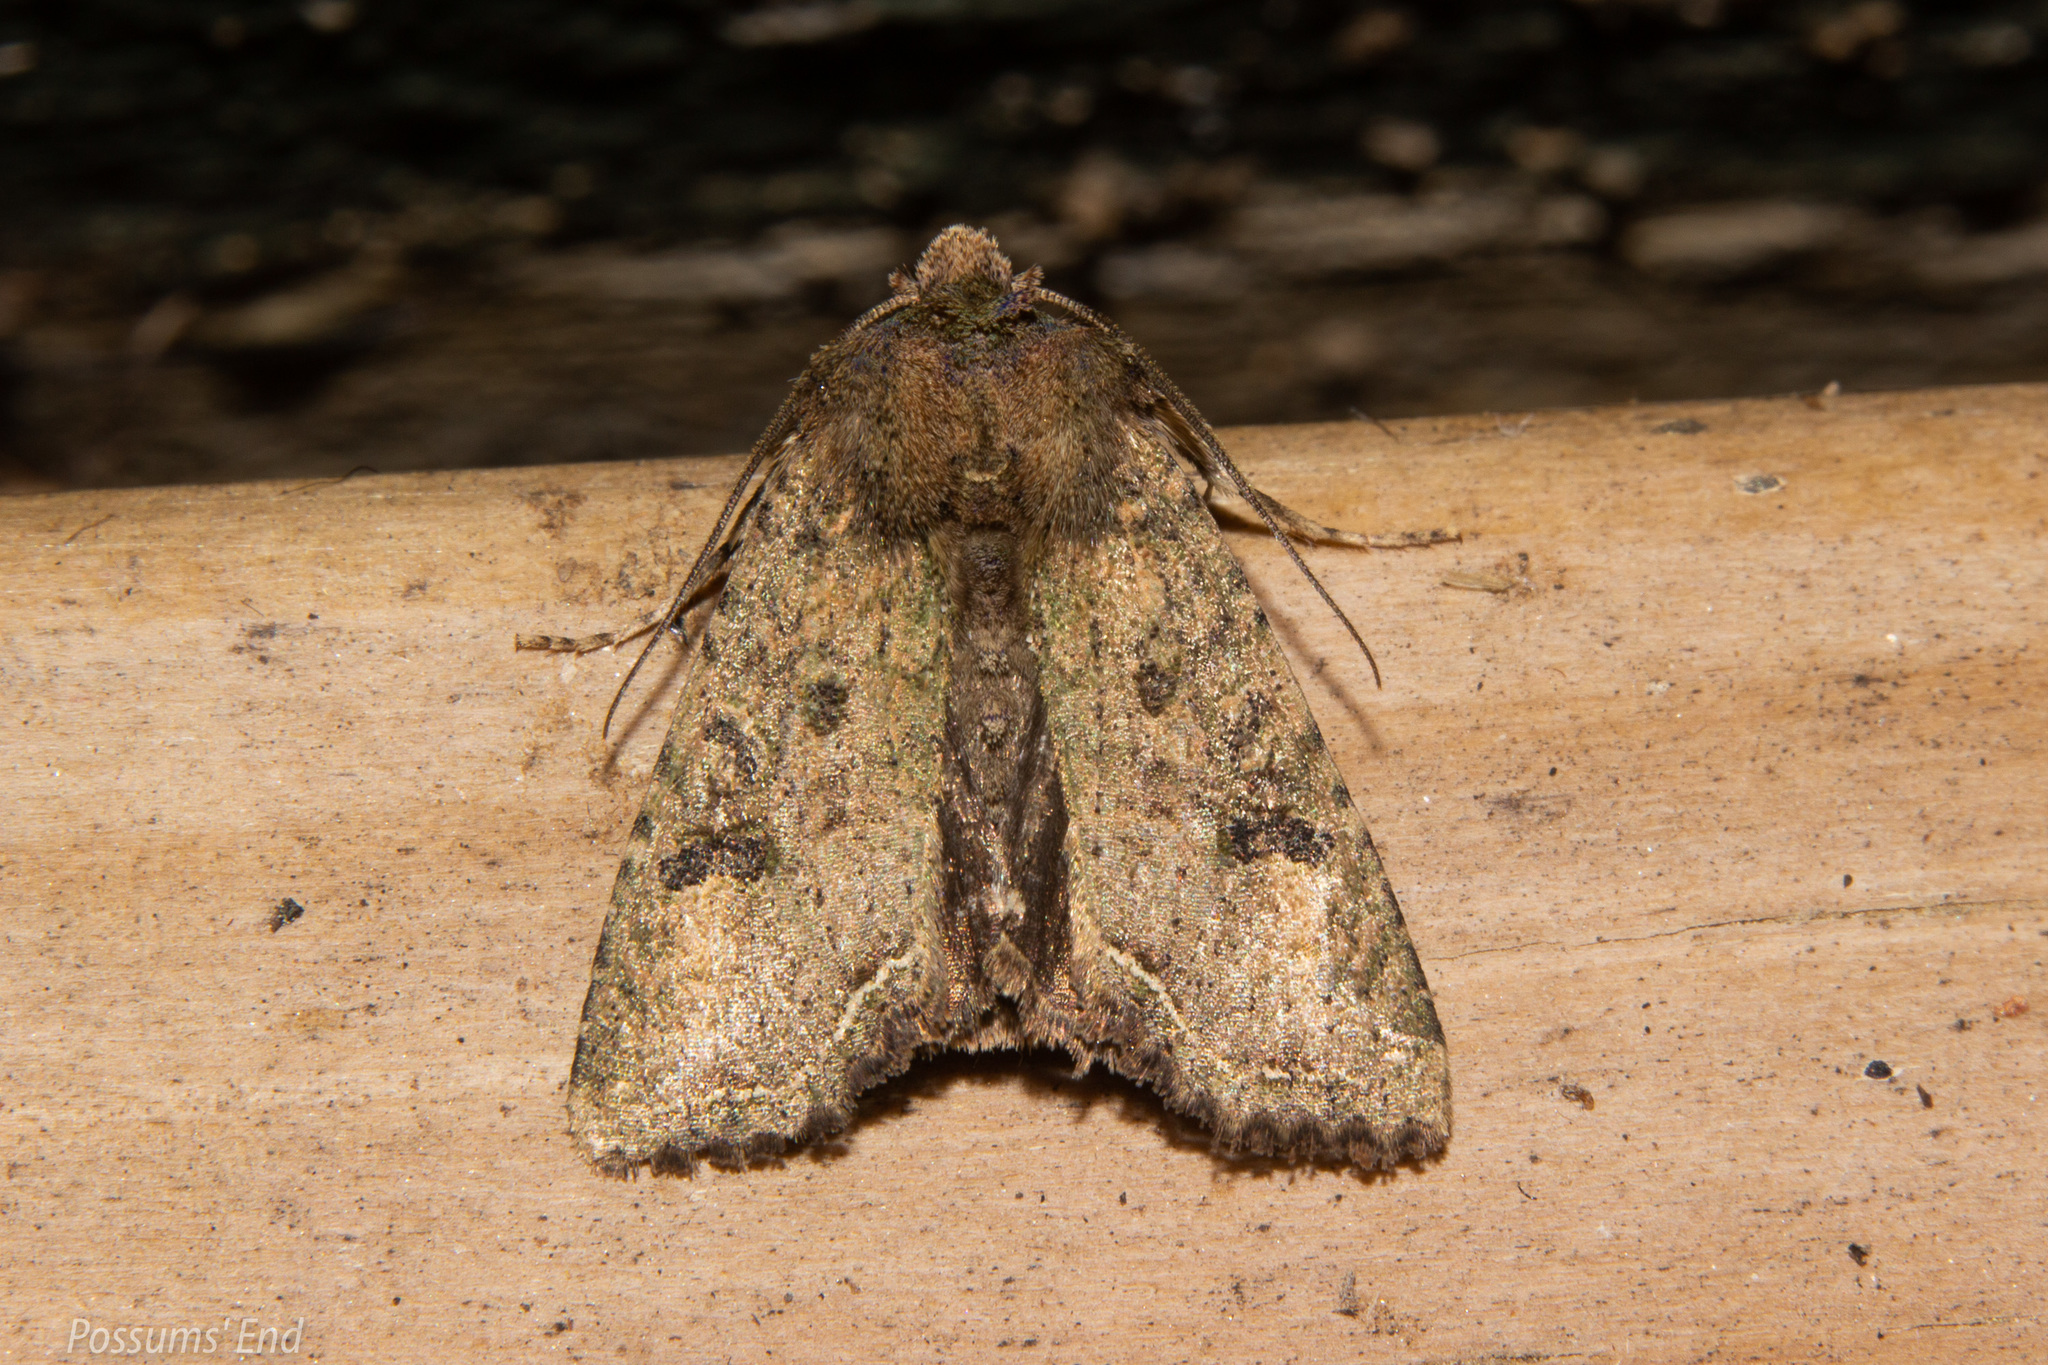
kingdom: Animalia
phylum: Arthropoda
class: Insecta
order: Lepidoptera
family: Noctuidae
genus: Meterana
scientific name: Meterana inchoata
